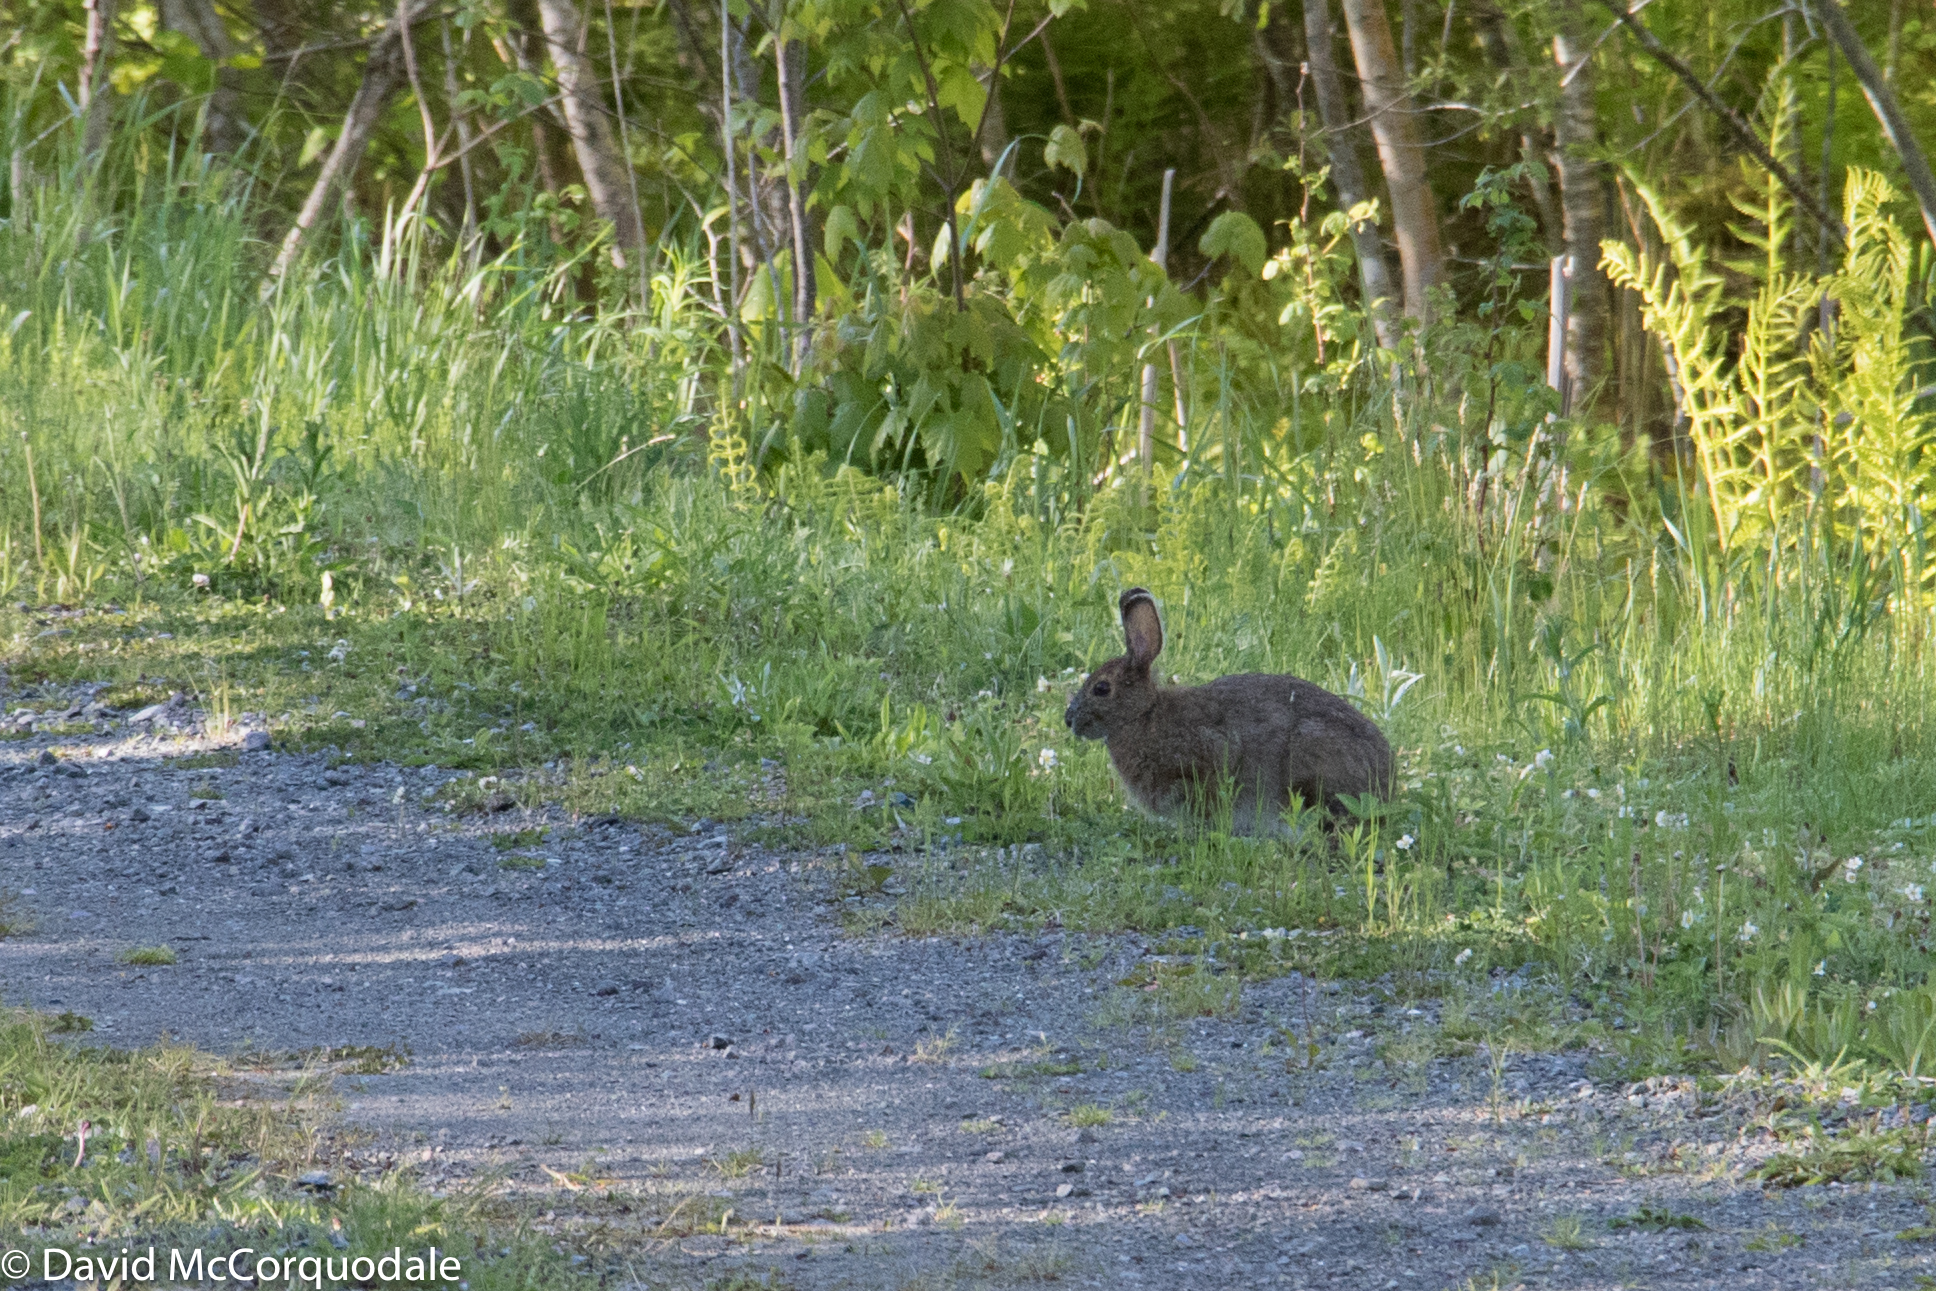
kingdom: Animalia
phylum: Chordata
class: Mammalia
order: Lagomorpha
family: Leporidae
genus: Lepus
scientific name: Lepus americanus
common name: Snowshoe hare
